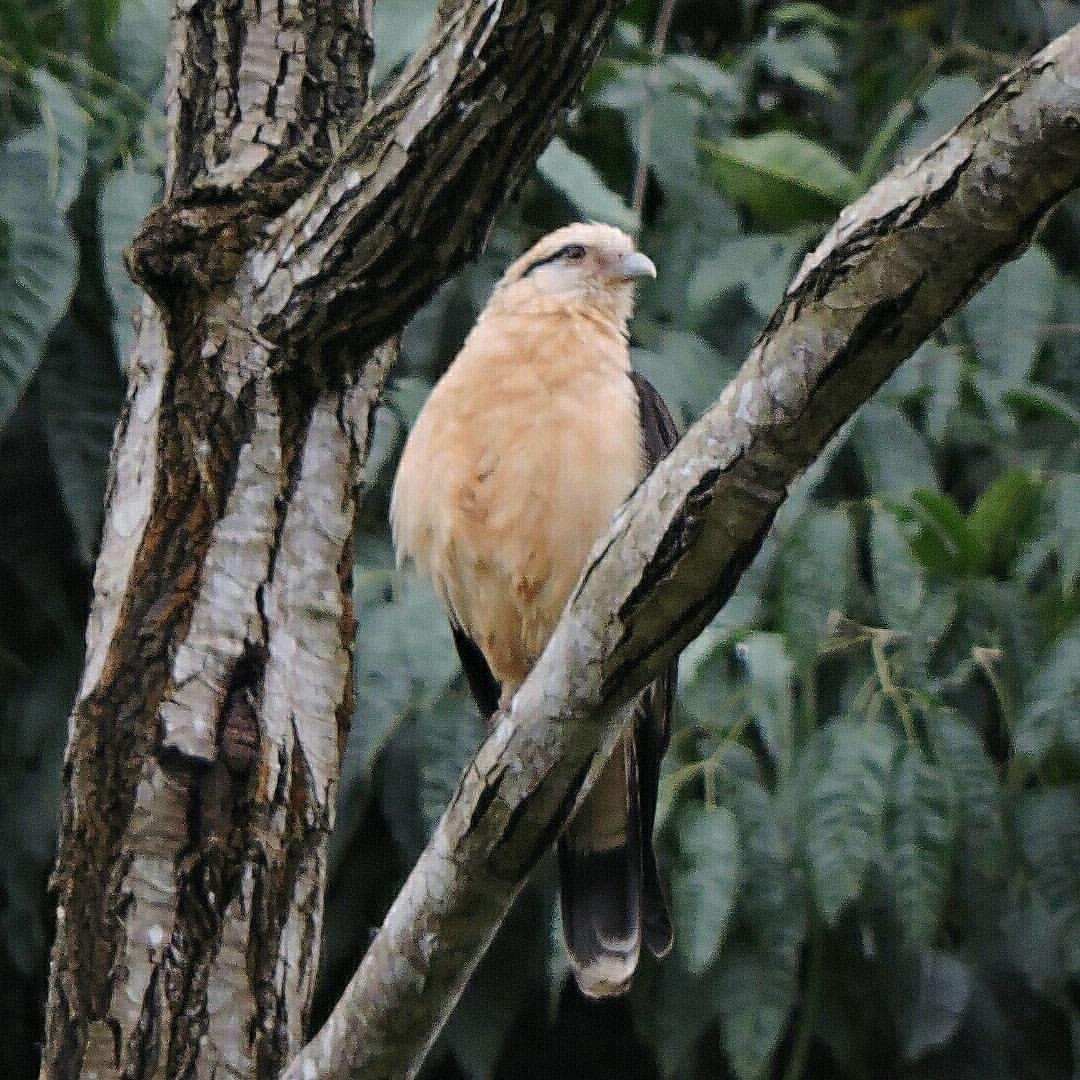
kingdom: Animalia
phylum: Chordata
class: Aves
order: Falconiformes
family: Falconidae
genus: Daptrius
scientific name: Daptrius
